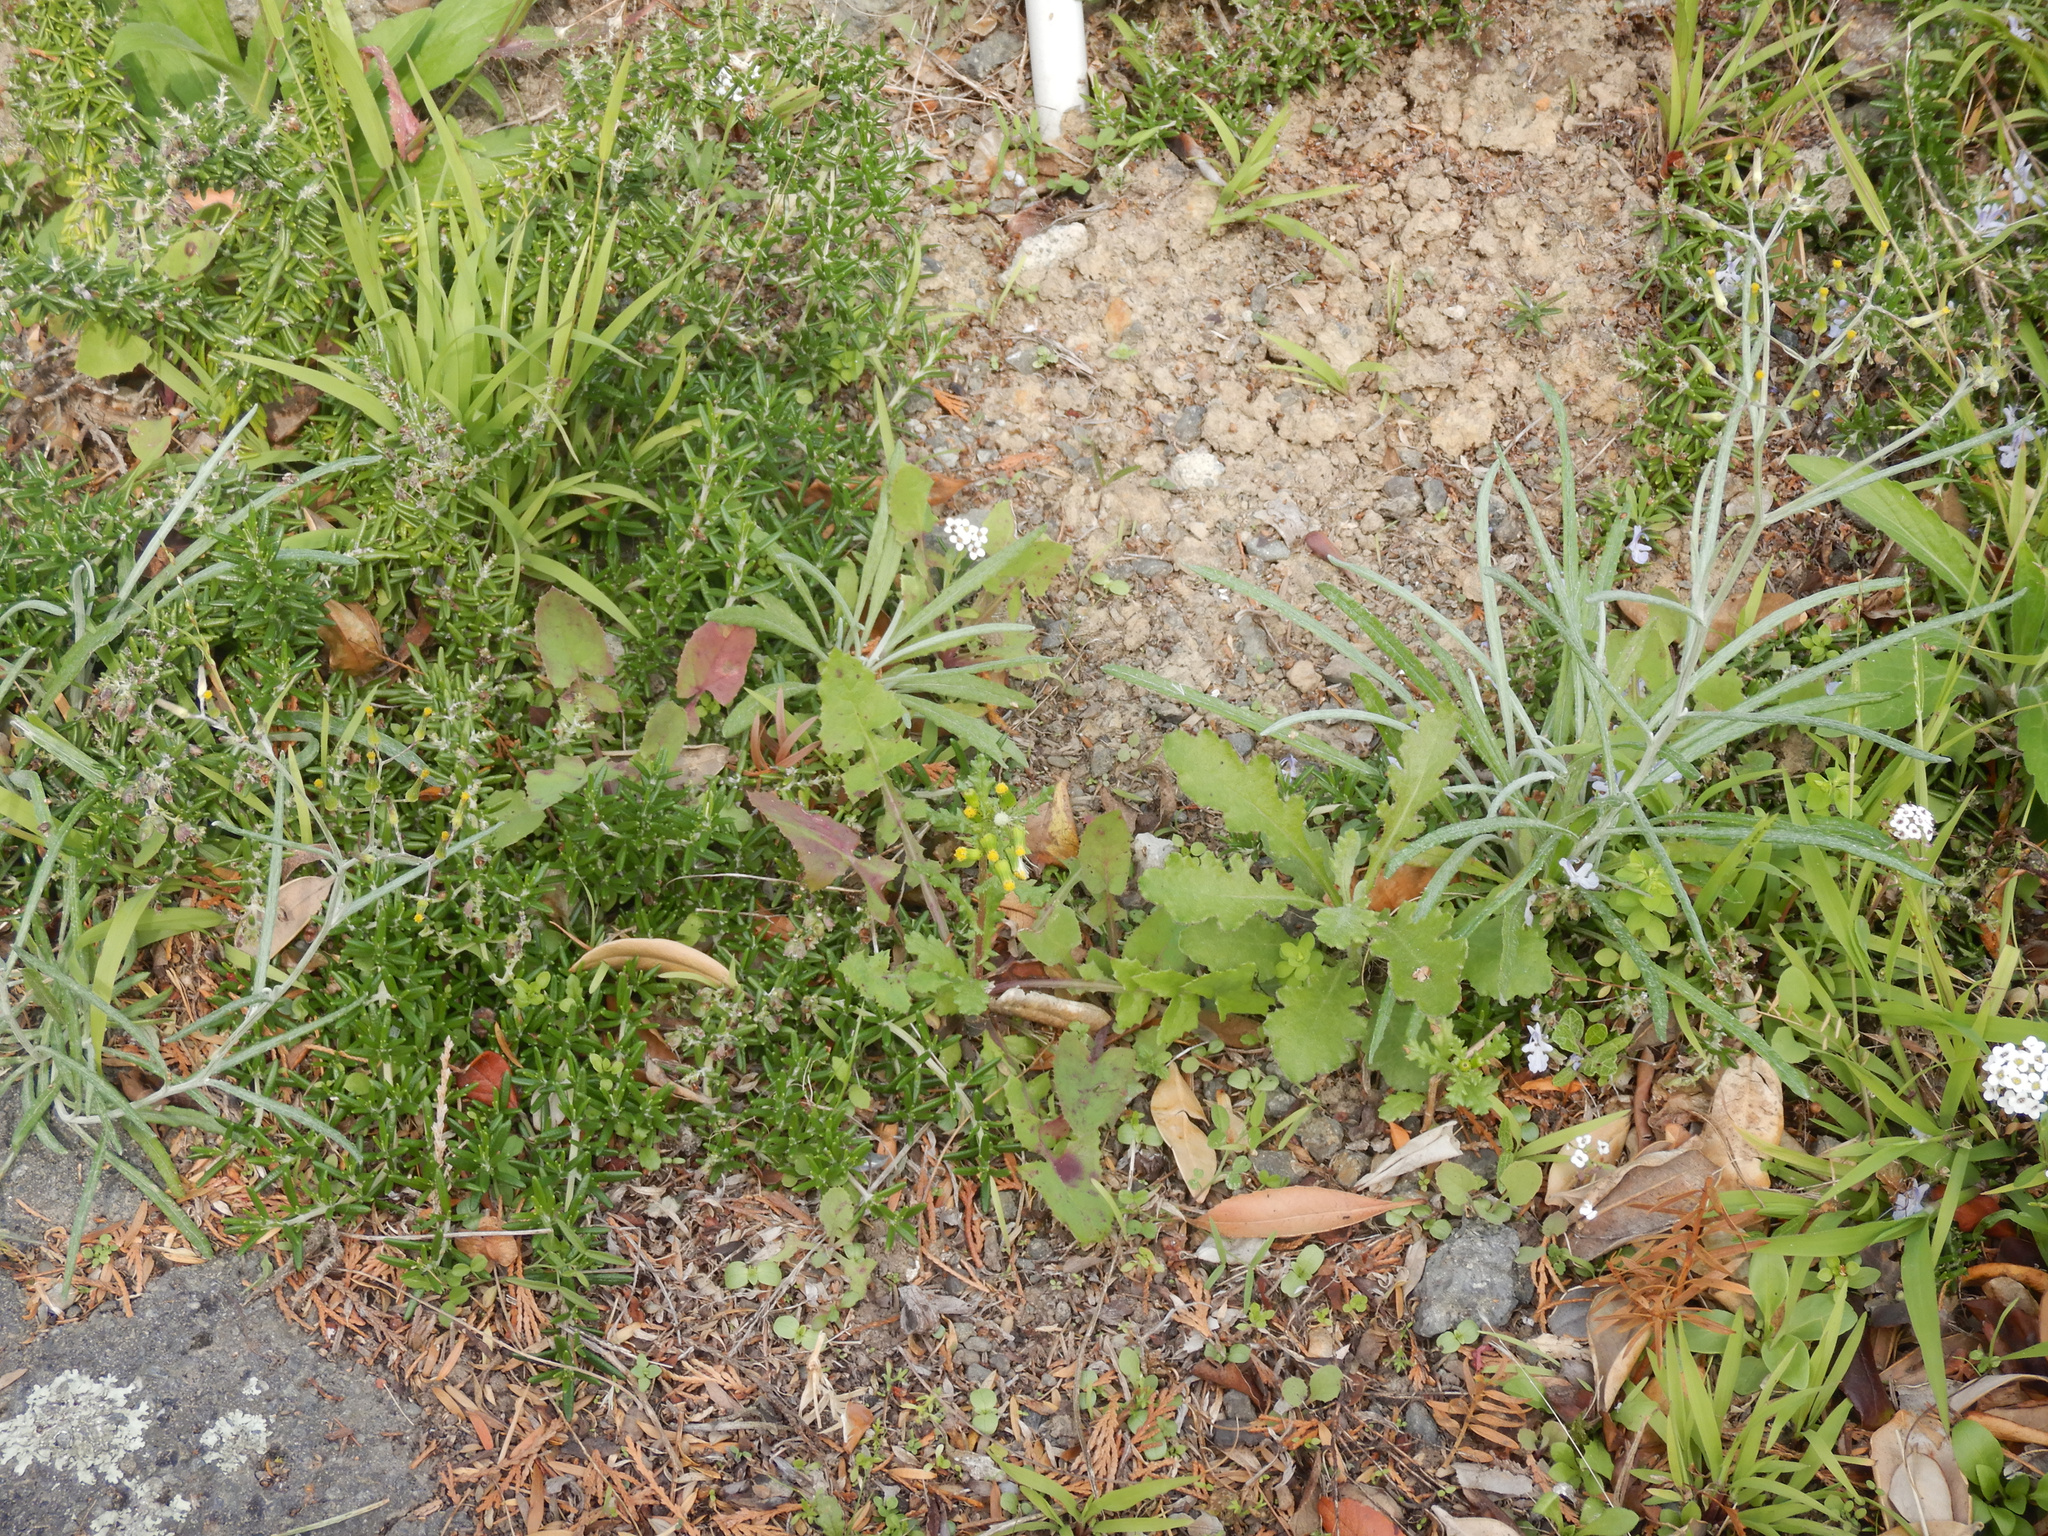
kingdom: Plantae
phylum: Tracheophyta
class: Magnoliopsida
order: Brassicales
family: Brassicaceae
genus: Lobularia
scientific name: Lobularia maritima
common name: Sweet alison
